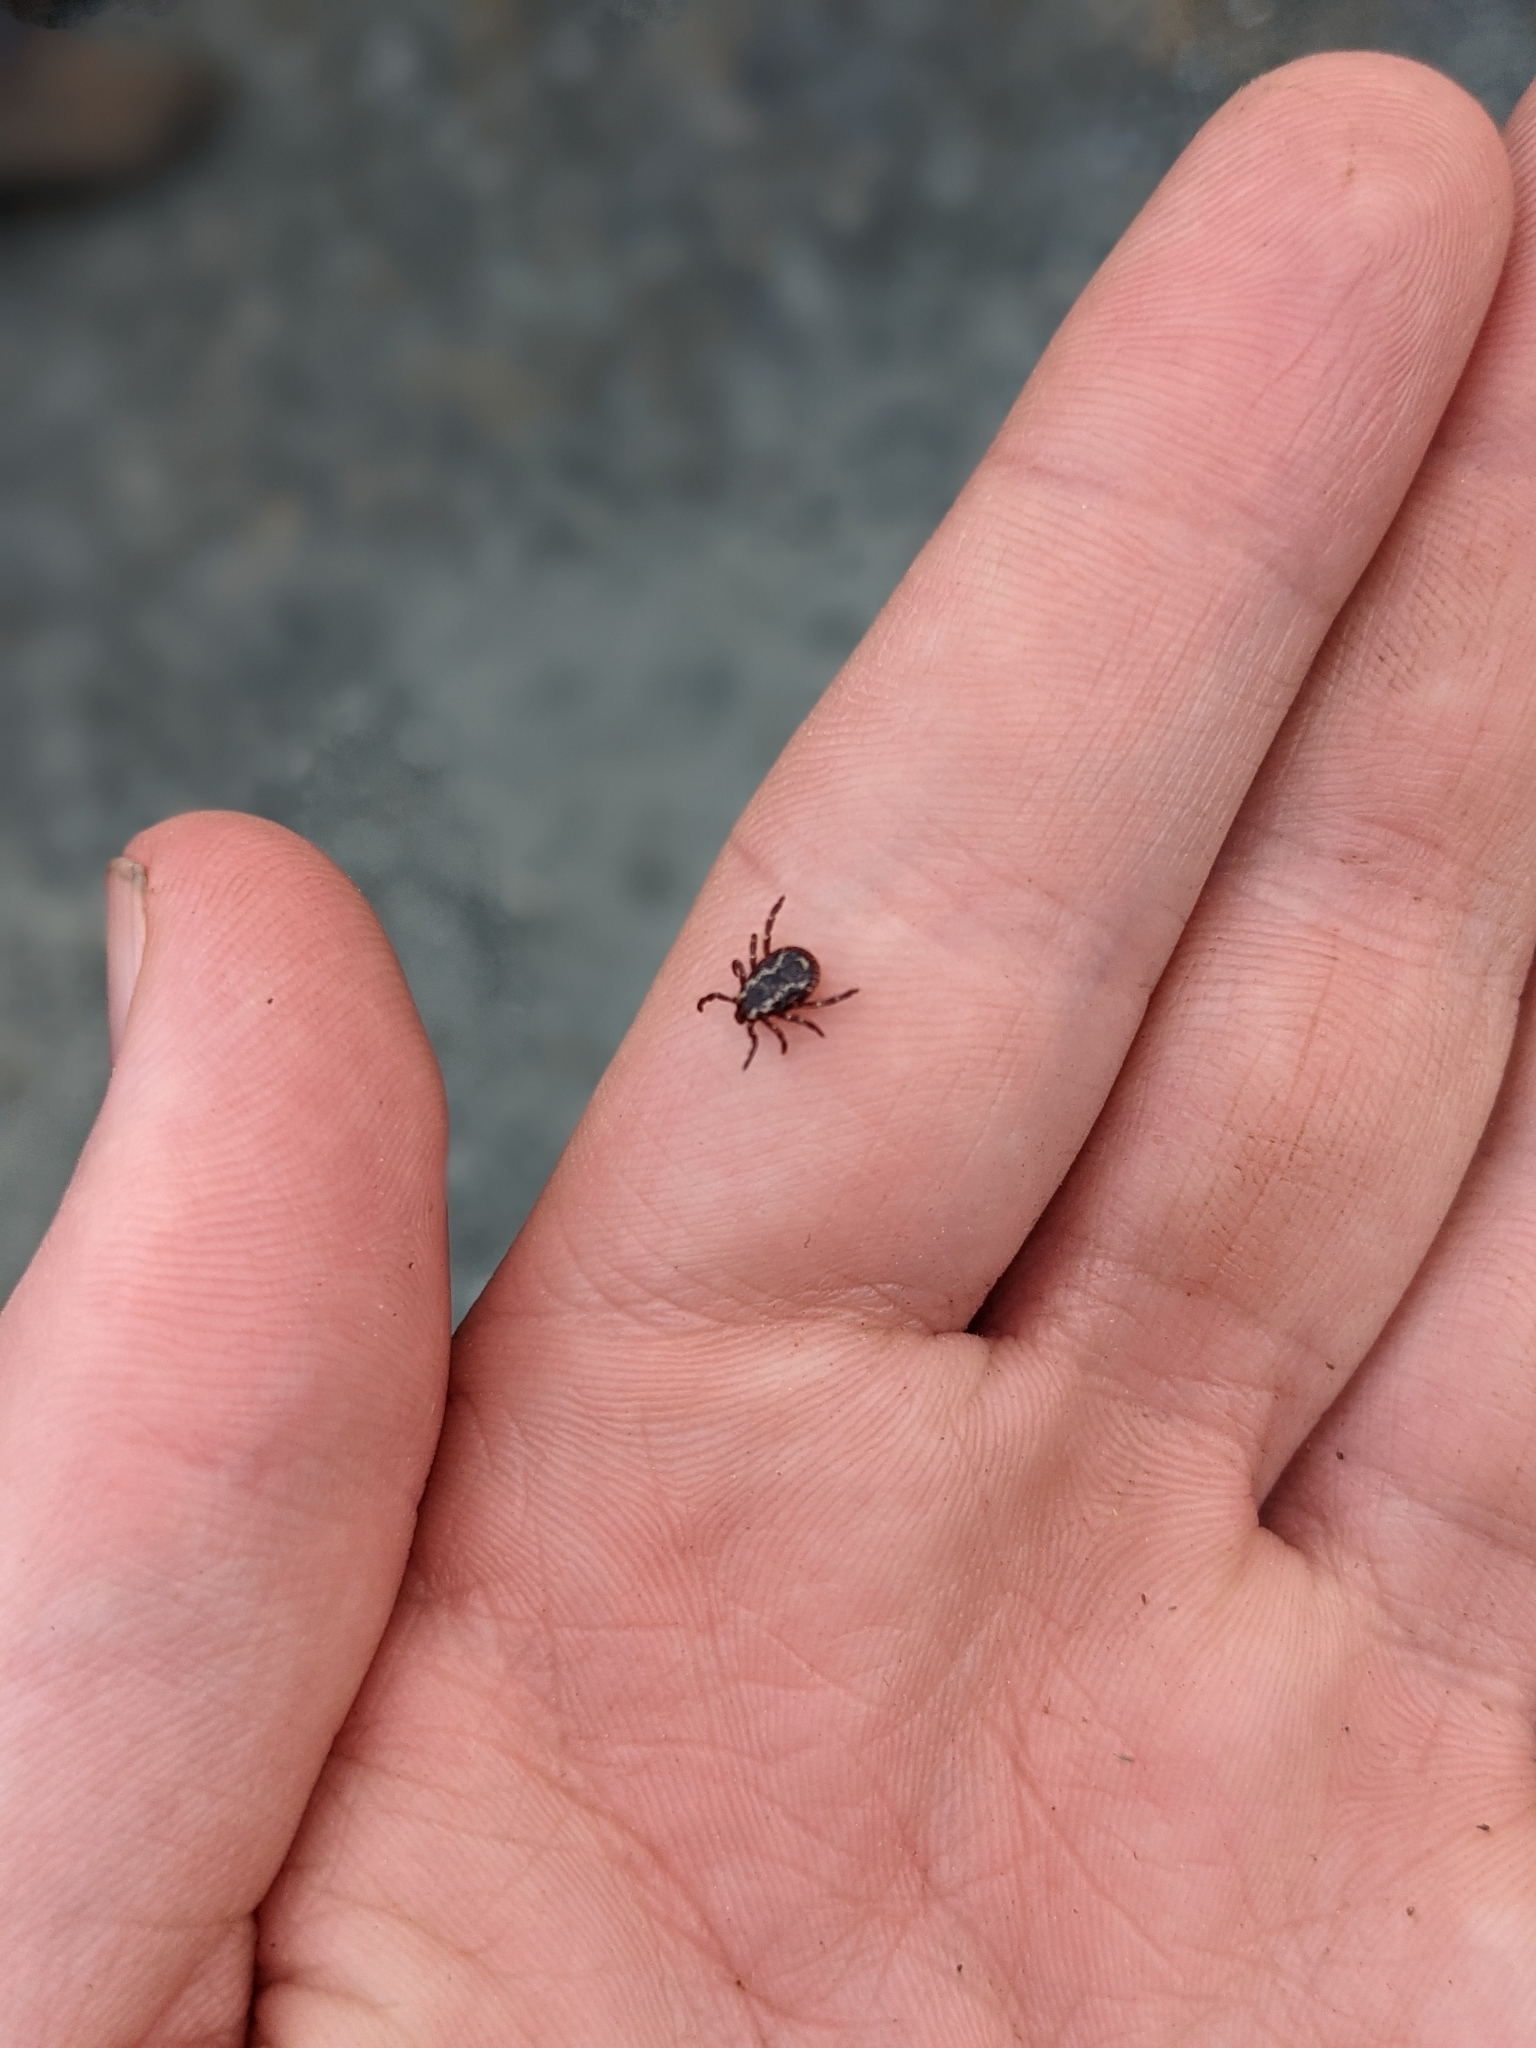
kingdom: Animalia
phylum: Arthropoda
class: Arachnida
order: Ixodida
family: Ixodidae
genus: Dermacentor
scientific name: Dermacentor variabilis
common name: American dog tick
